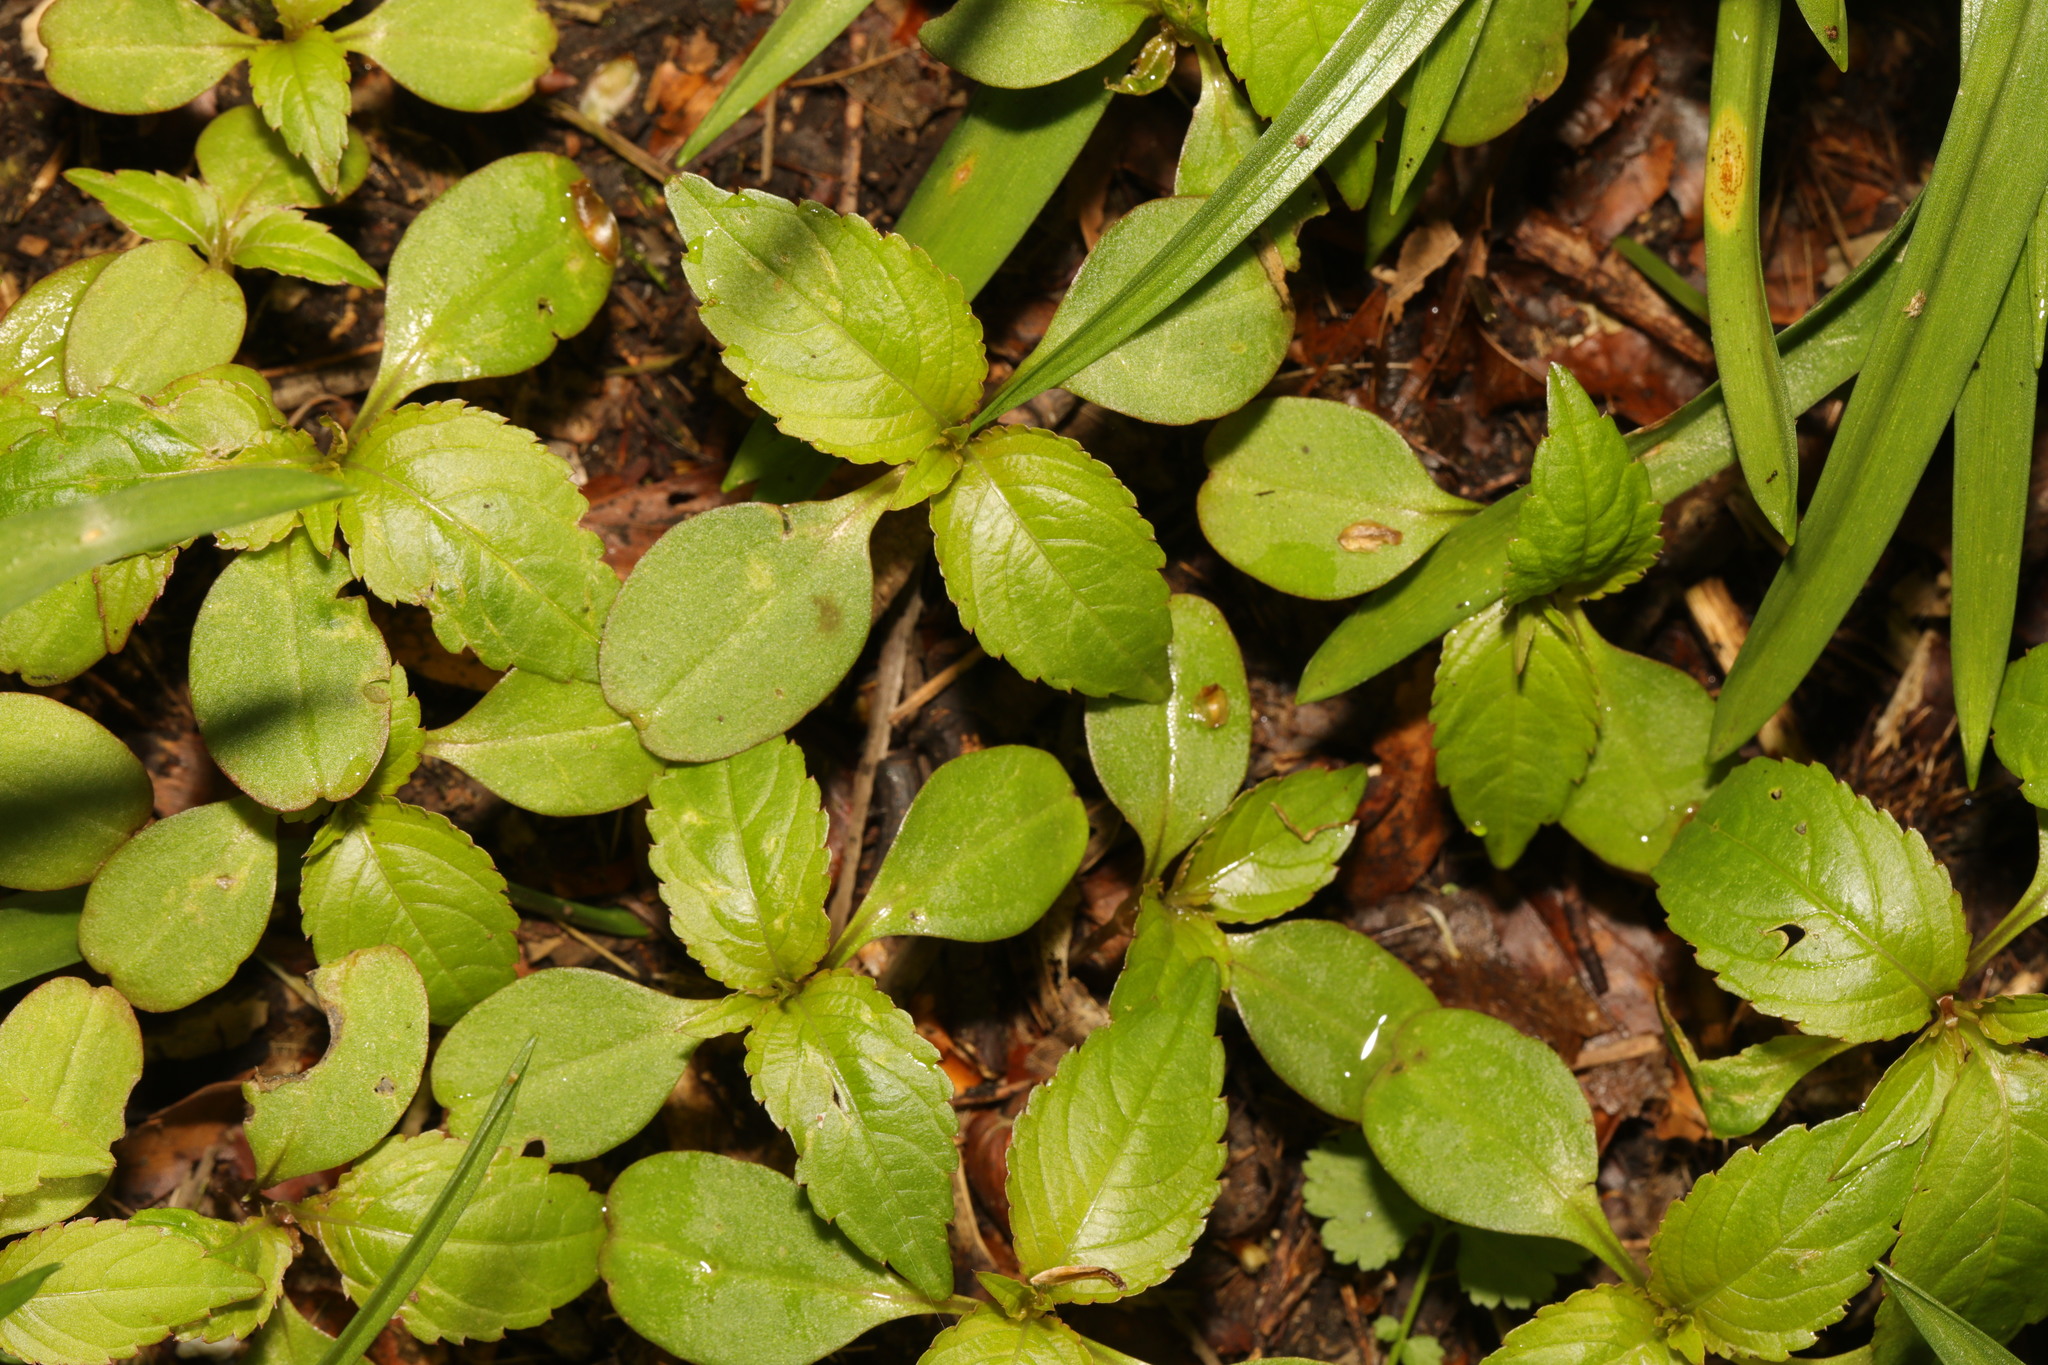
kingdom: Plantae
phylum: Tracheophyta
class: Magnoliopsida
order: Ericales
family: Balsaminaceae
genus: Impatiens
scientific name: Impatiens parviflora
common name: Small balsam
